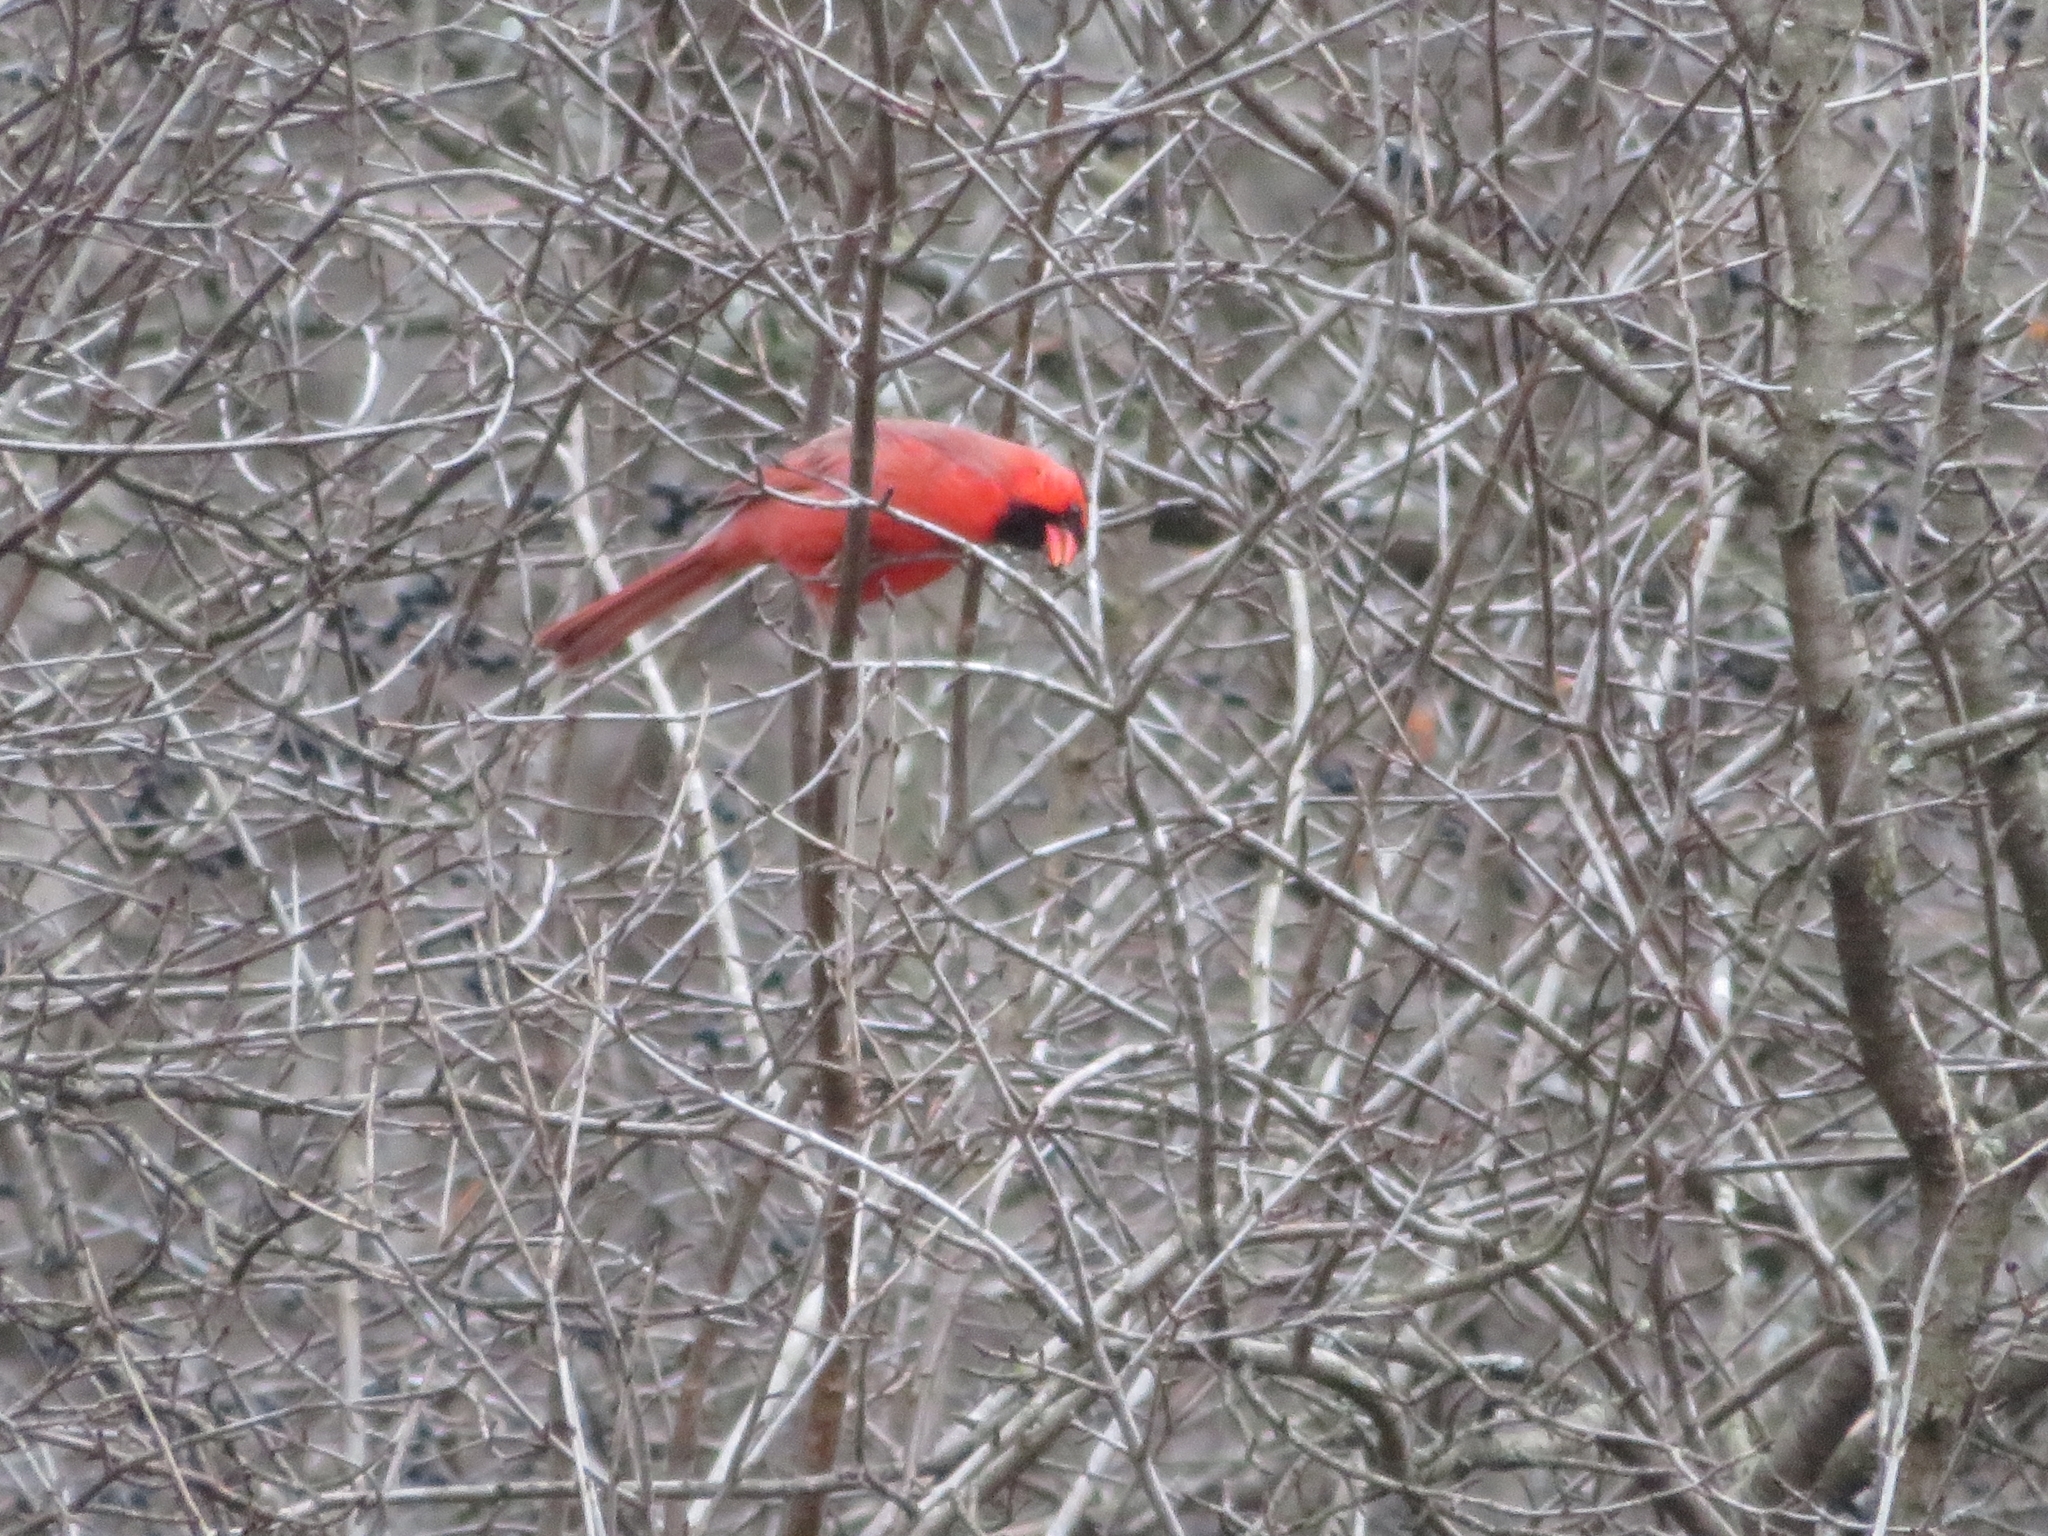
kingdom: Animalia
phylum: Chordata
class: Aves
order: Passeriformes
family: Cardinalidae
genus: Cardinalis
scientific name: Cardinalis cardinalis
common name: Northern cardinal
